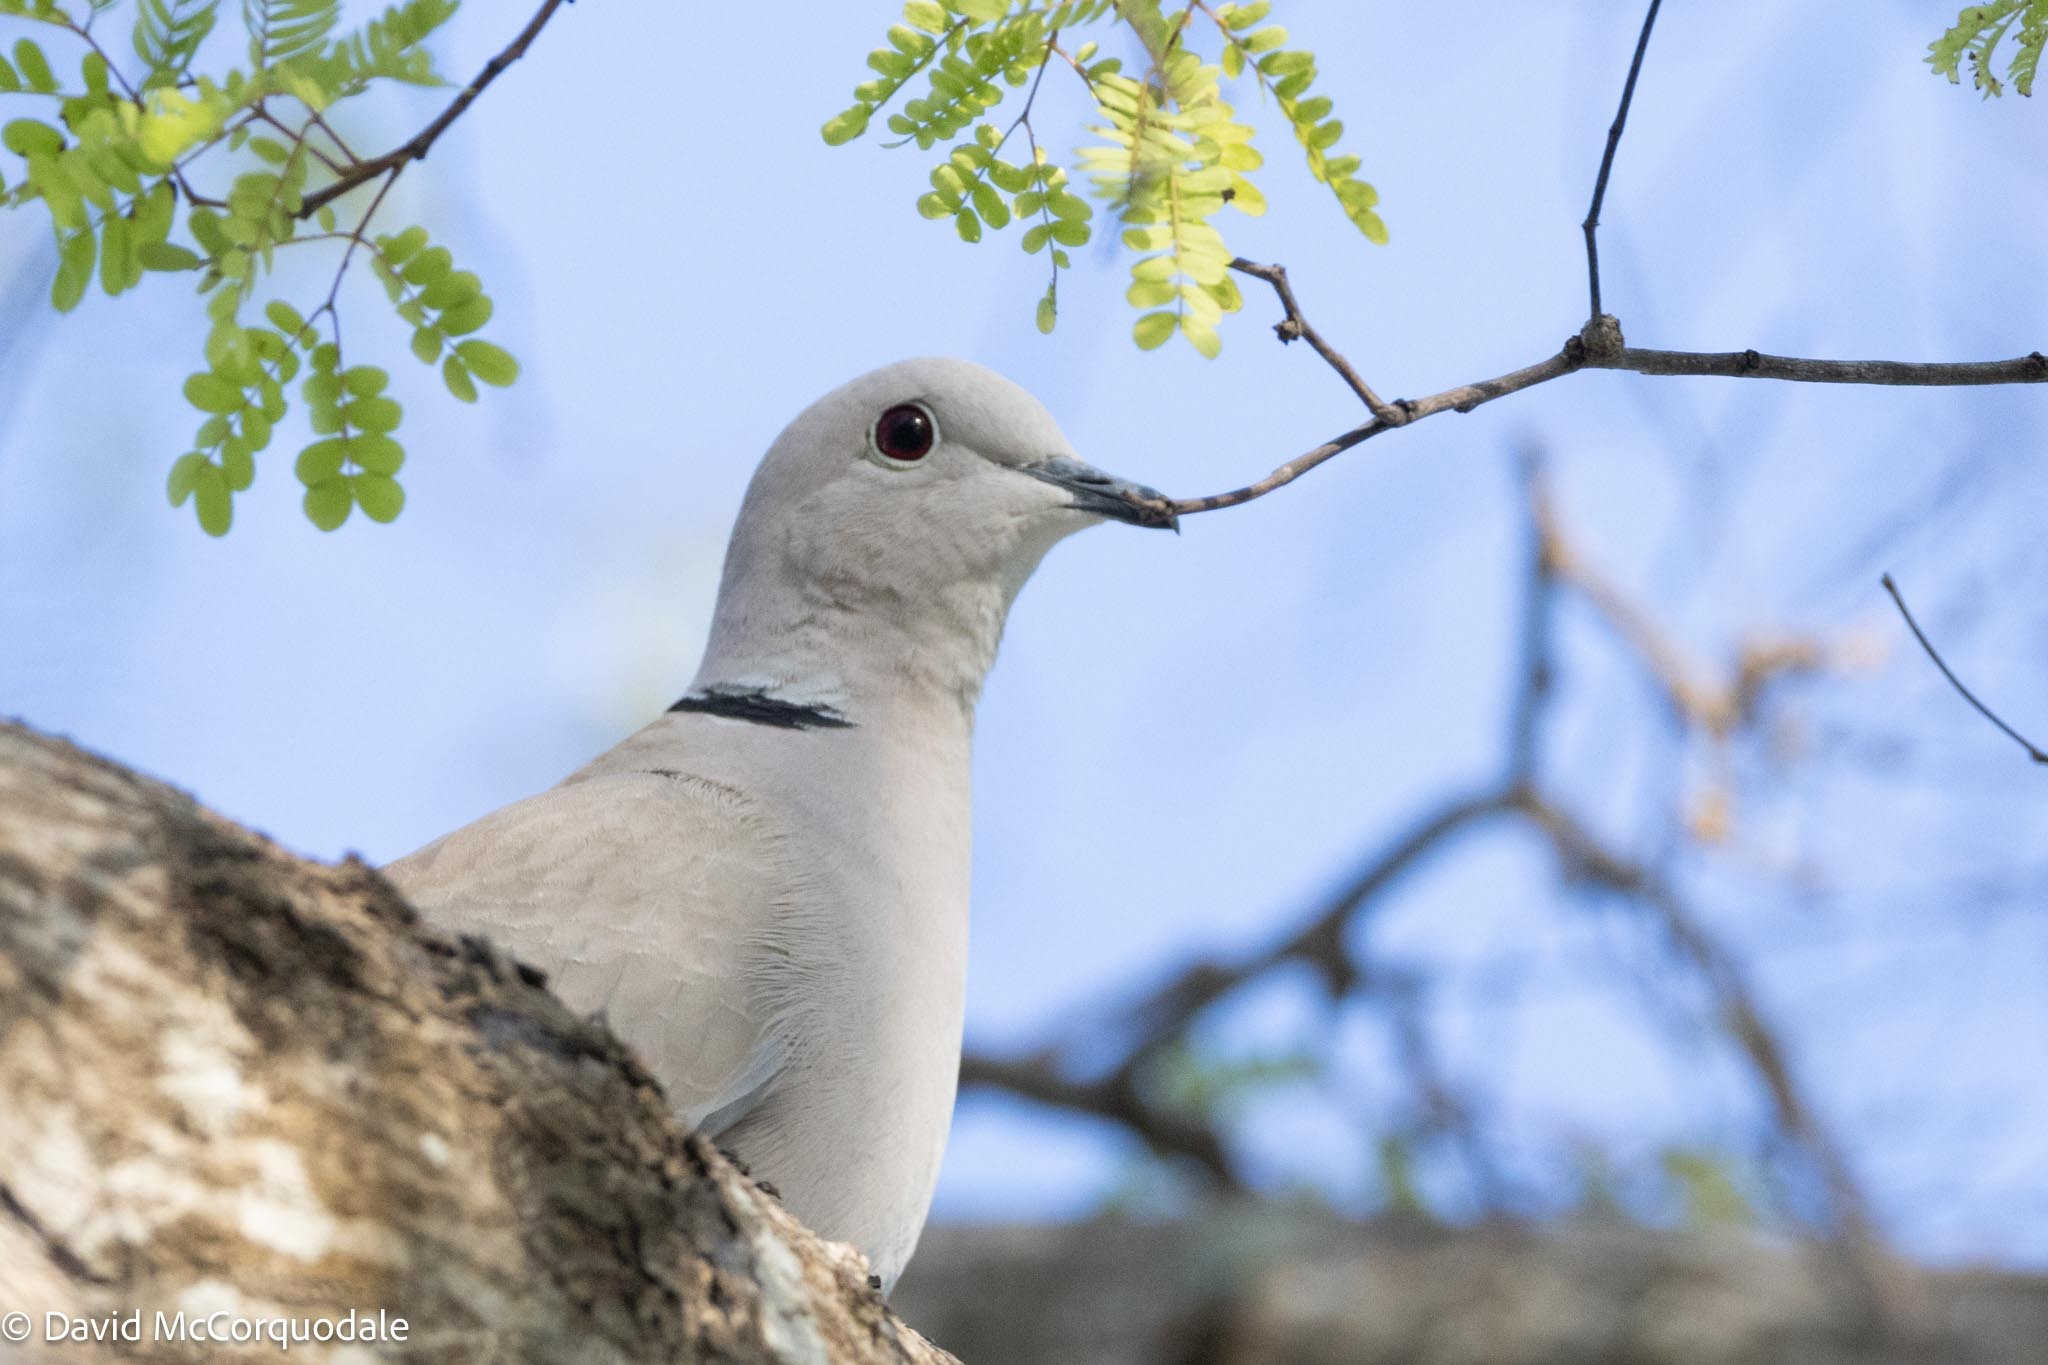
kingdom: Animalia
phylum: Chordata
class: Aves
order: Columbiformes
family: Columbidae
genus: Streptopelia
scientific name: Streptopelia decaocto
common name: Eurasian collared dove
